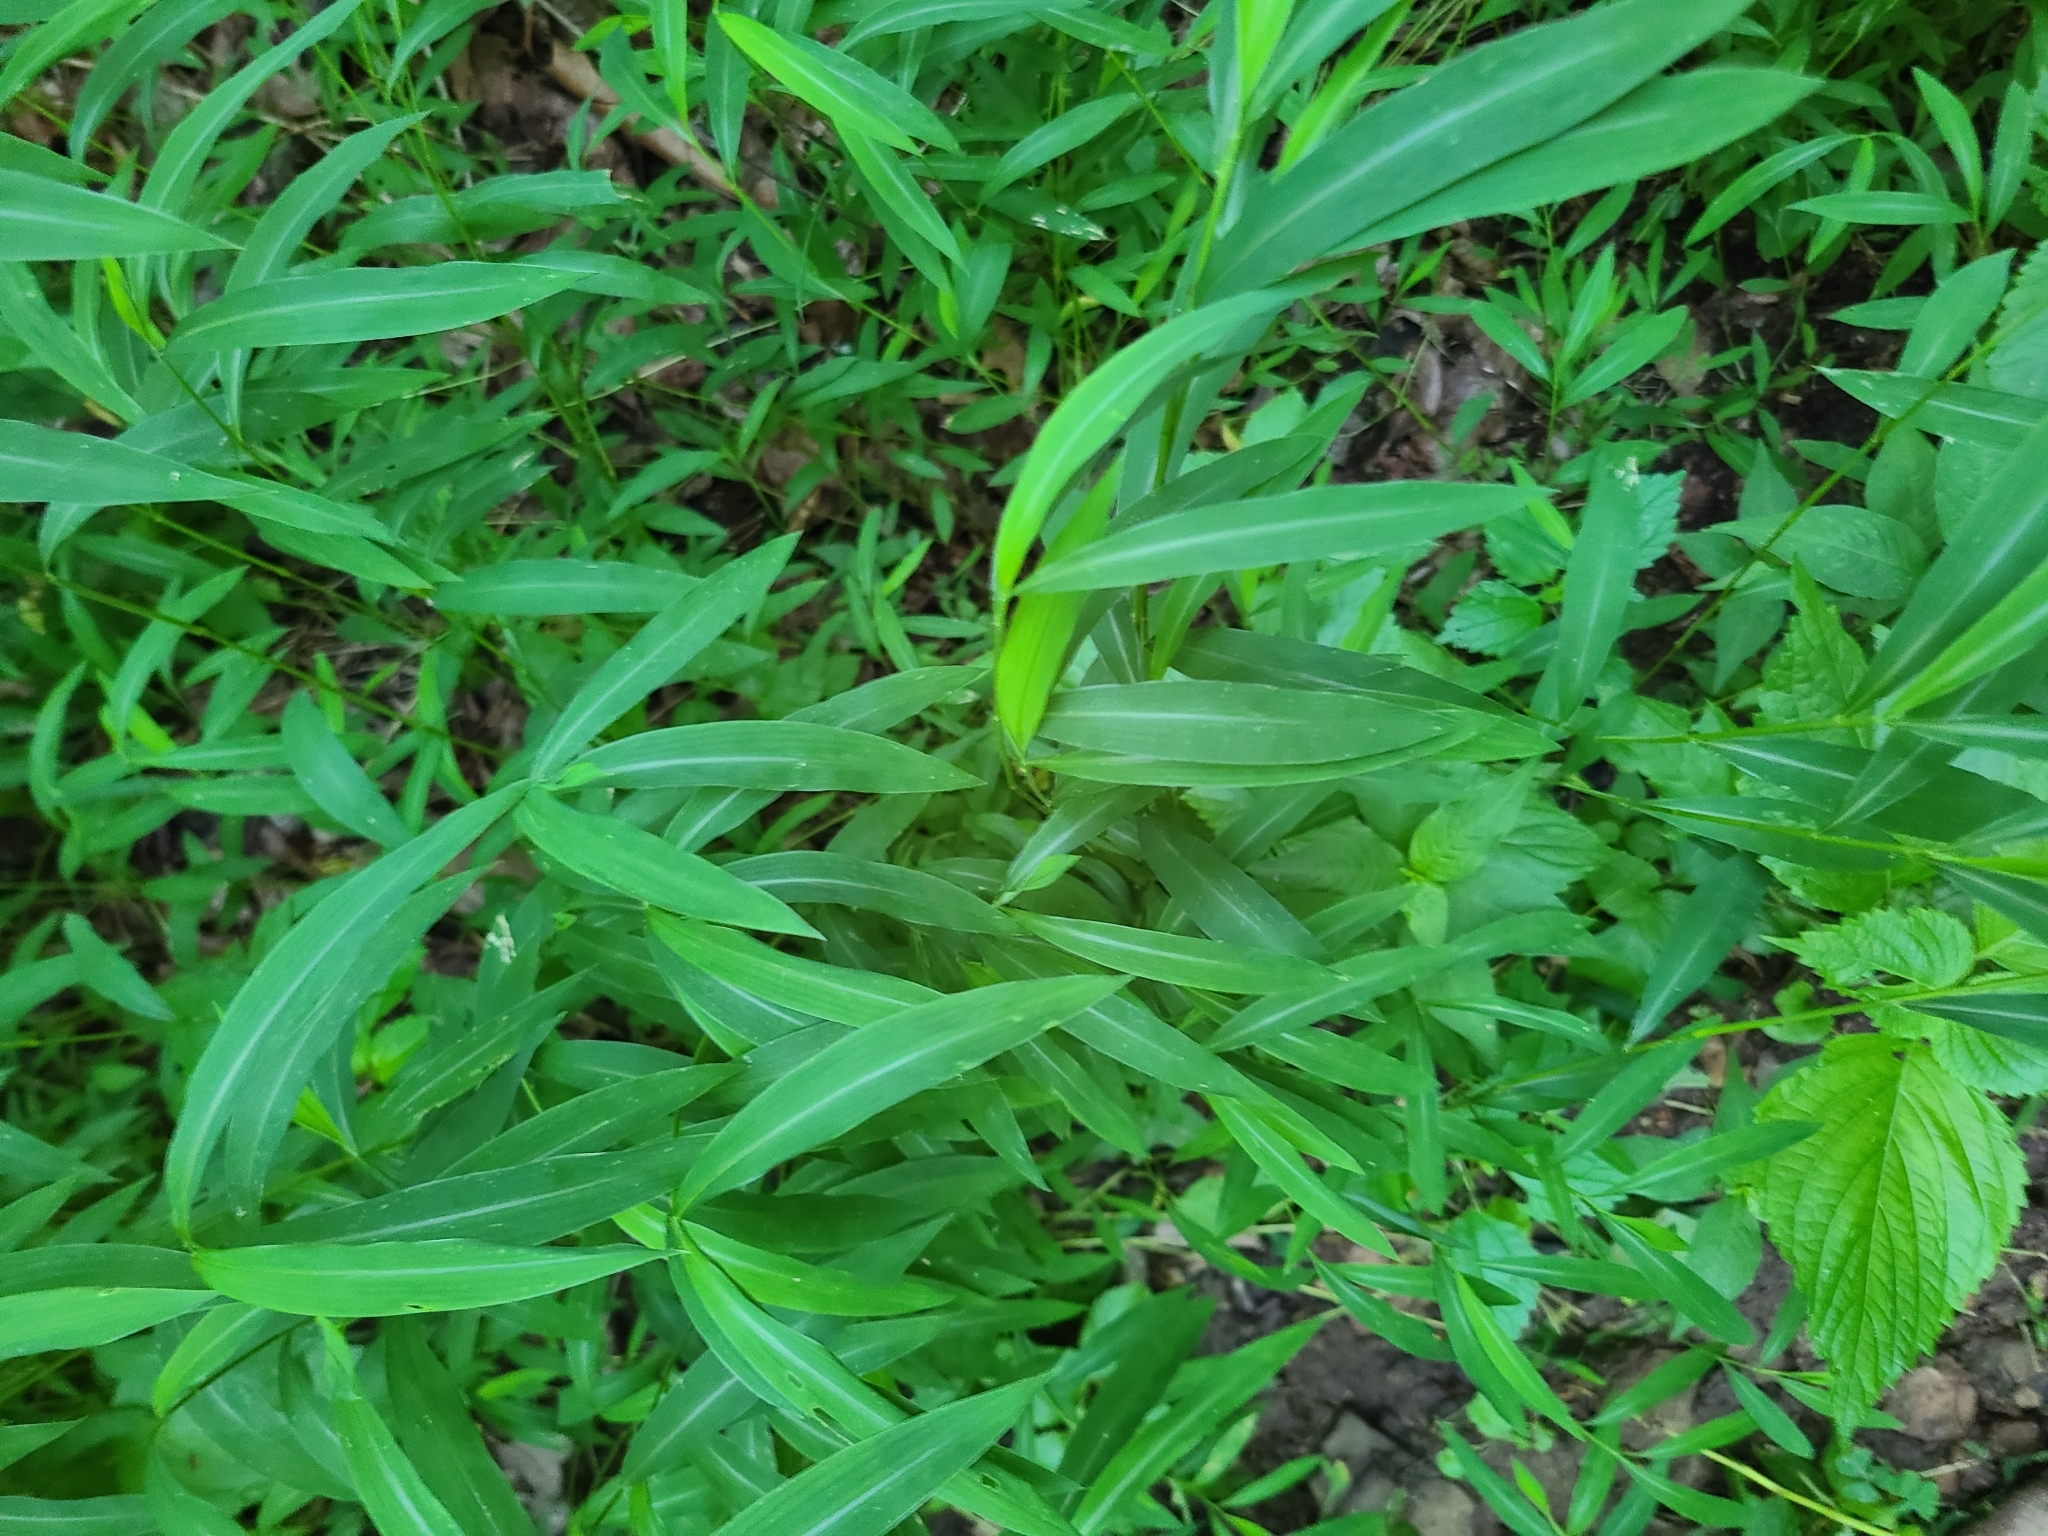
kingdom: Plantae
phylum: Tracheophyta
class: Liliopsida
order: Poales
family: Poaceae
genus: Microstegium
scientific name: Microstegium vimineum
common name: Japanese stiltgrass
